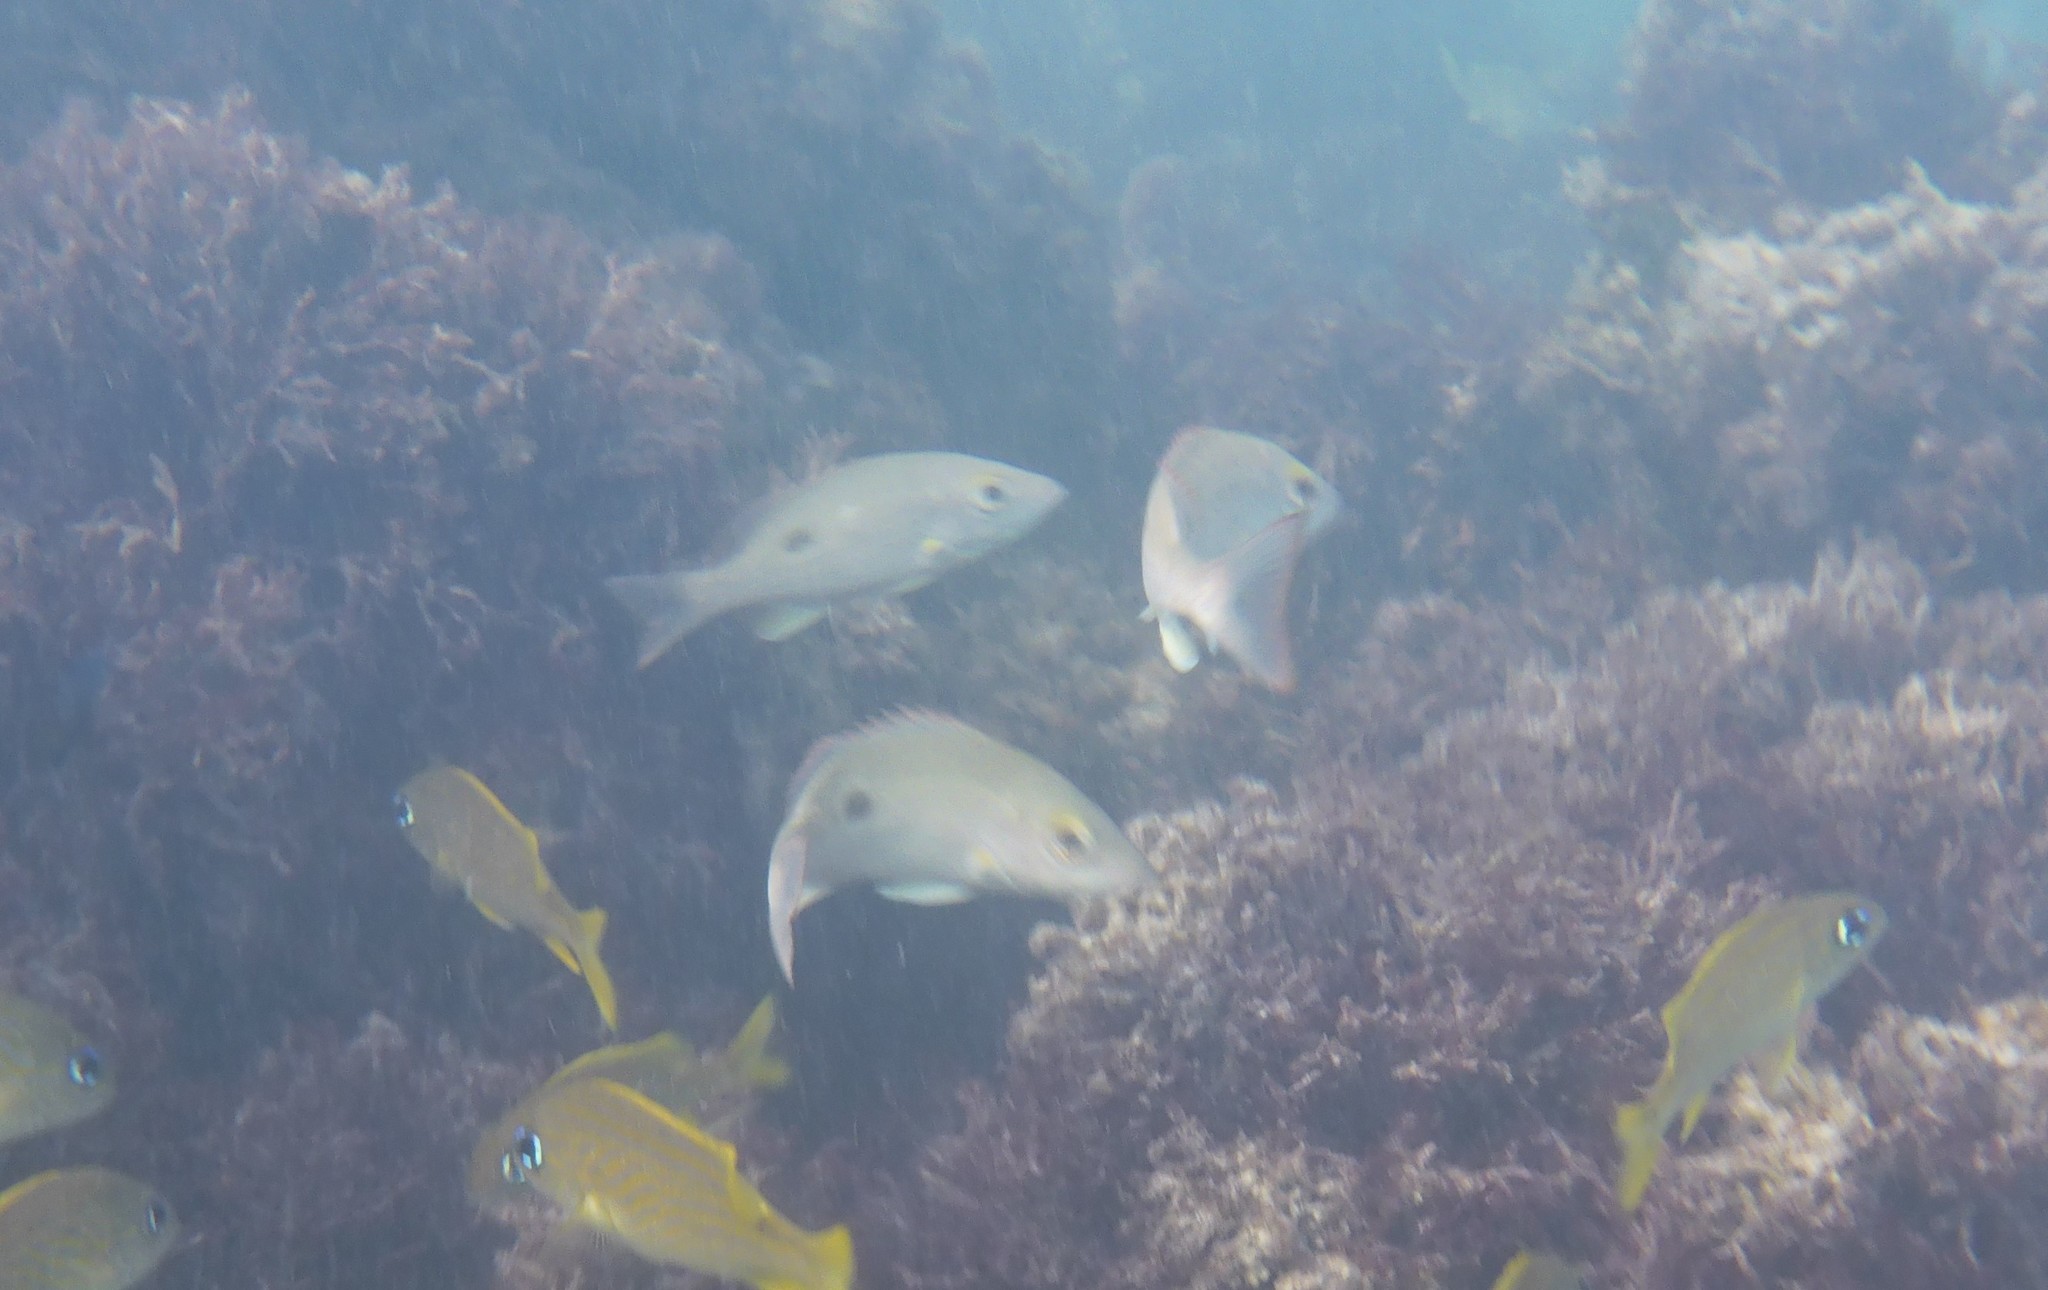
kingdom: Animalia
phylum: Chordata
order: Perciformes
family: Lutjanidae
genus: Lutjanus
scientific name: Lutjanus mahogoni
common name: Spot snapper
